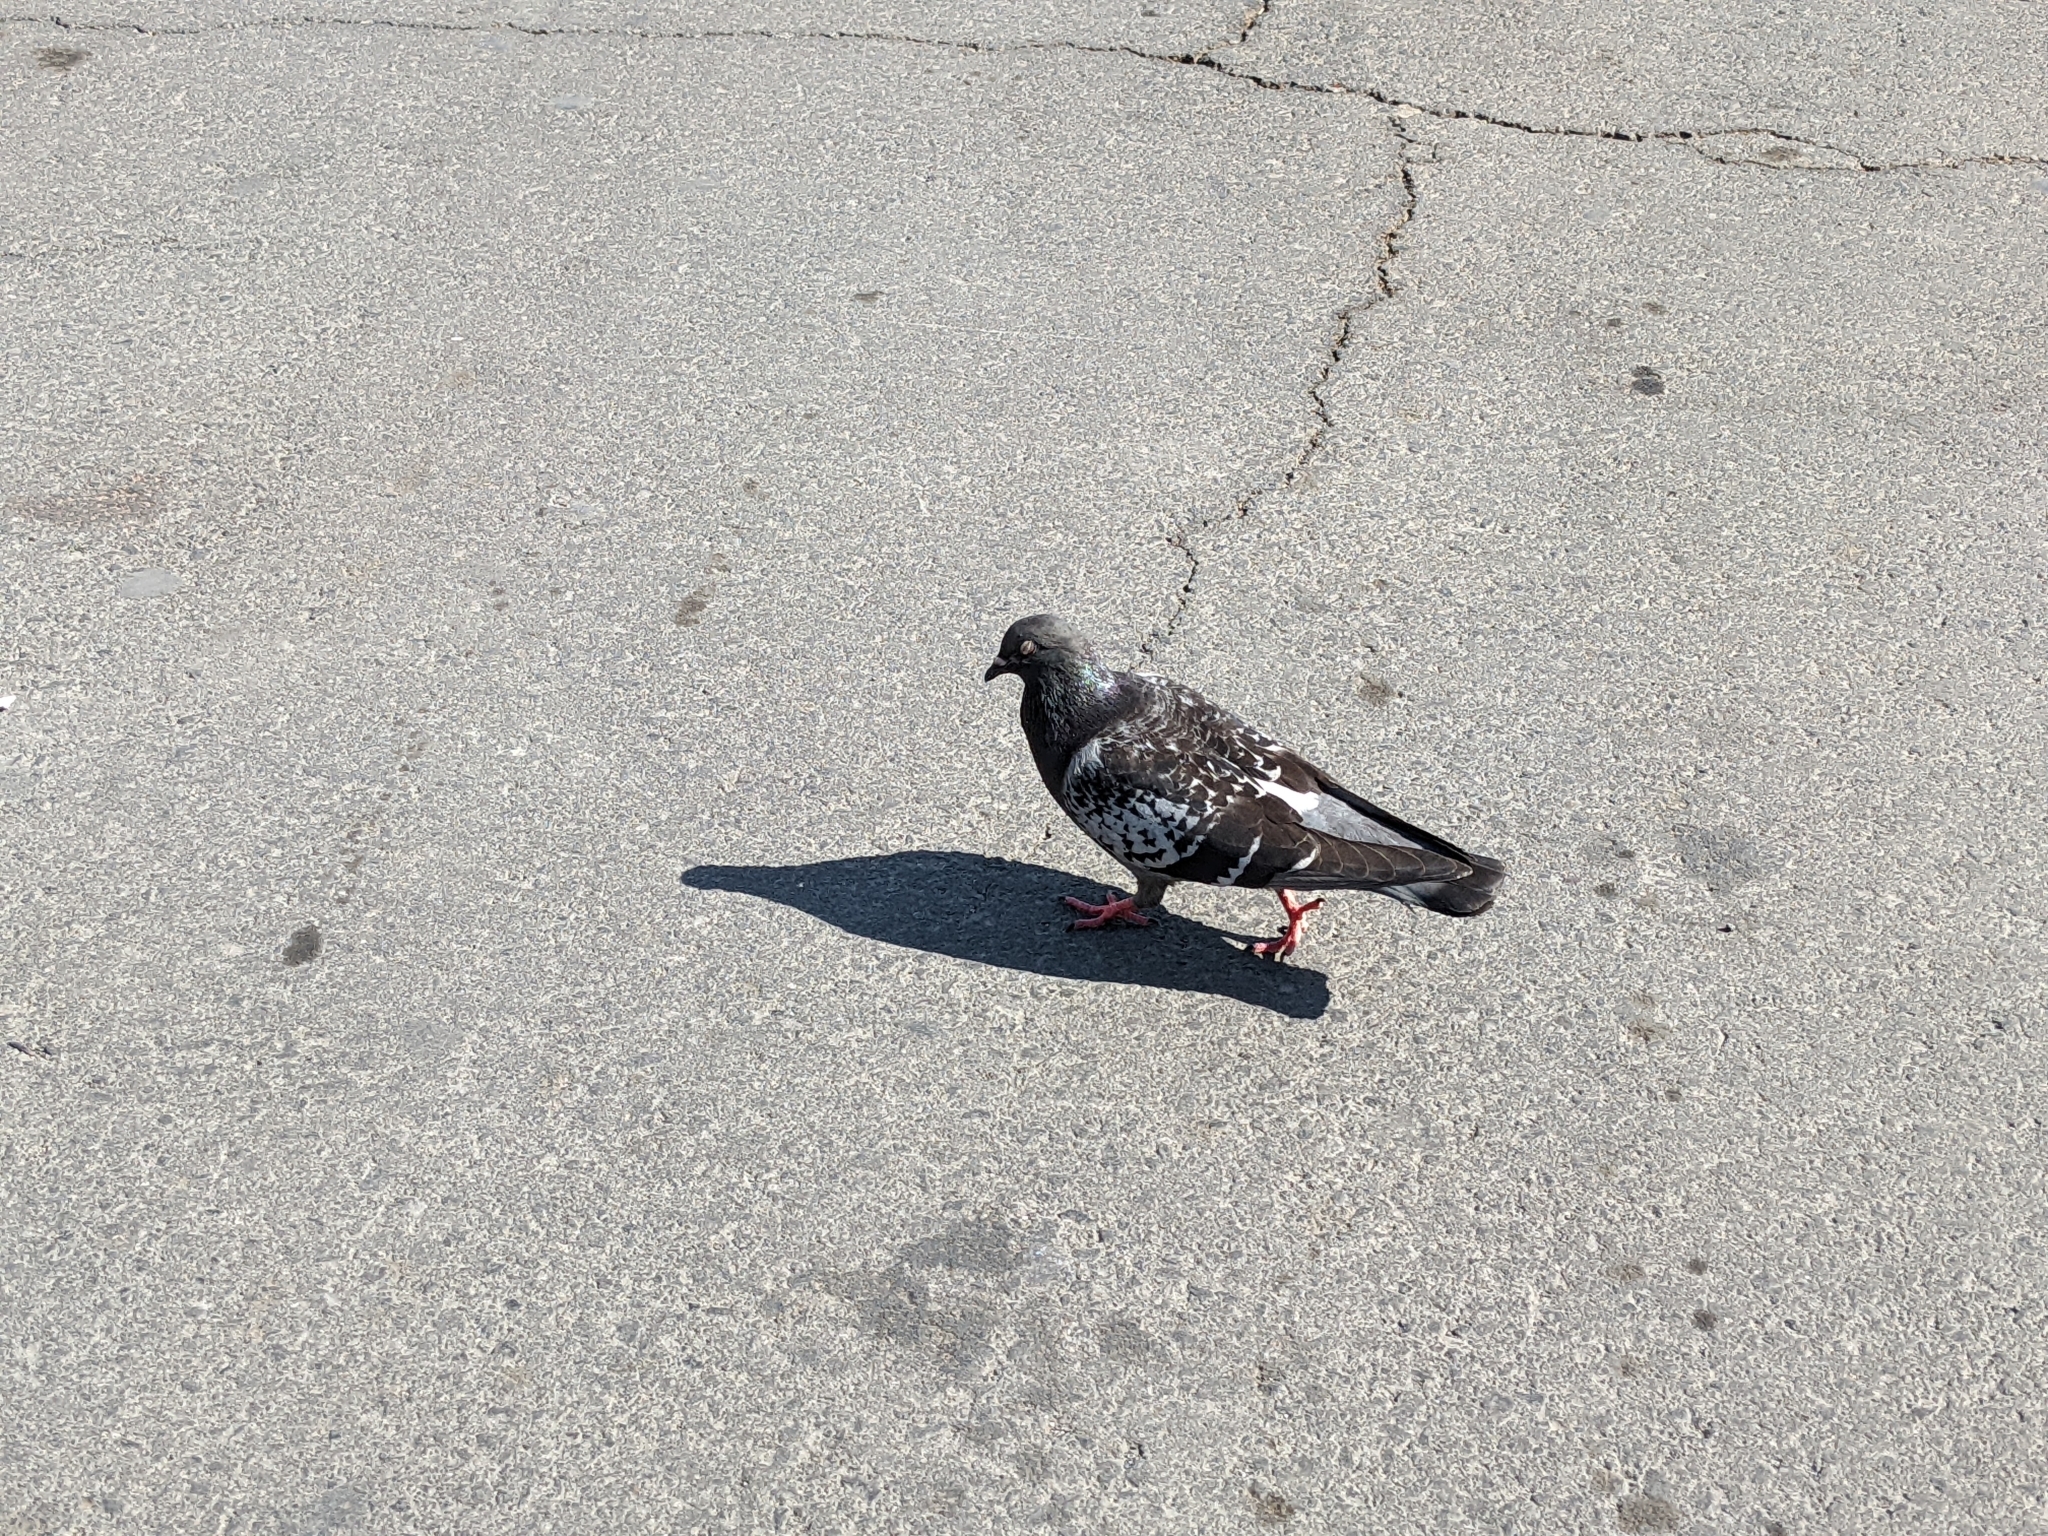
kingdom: Animalia
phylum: Chordata
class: Aves
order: Columbiformes
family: Columbidae
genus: Columba
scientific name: Columba livia
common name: Rock pigeon
